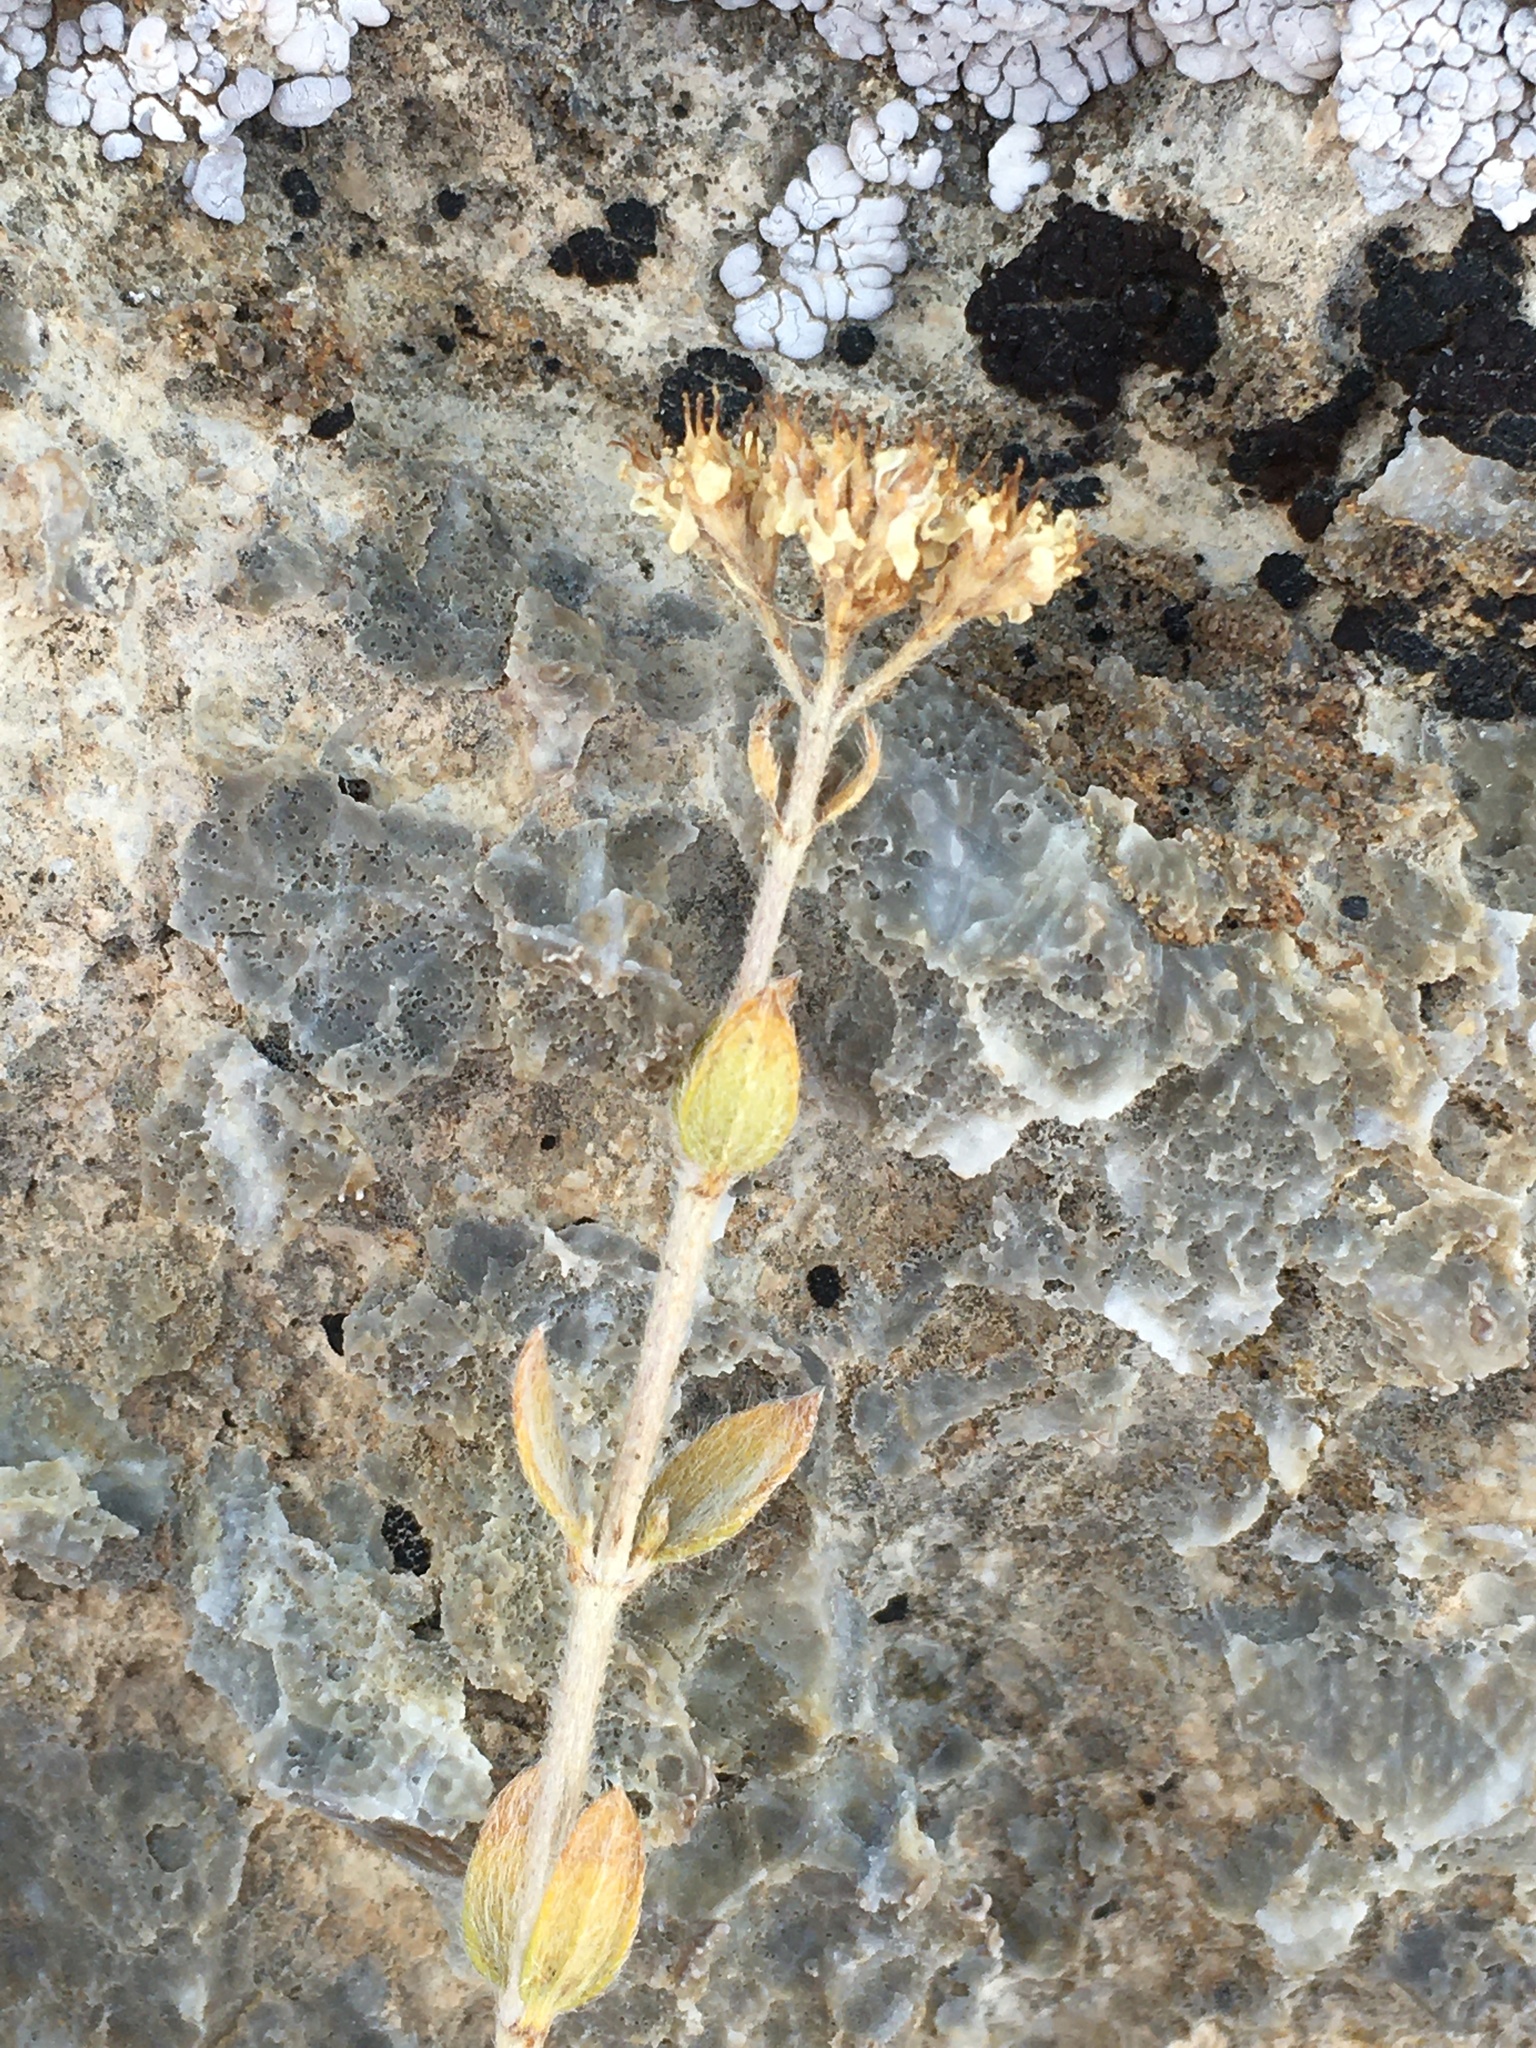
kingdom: Plantae
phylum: Tracheophyta
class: Magnoliopsida
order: Cornales
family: Hydrangeaceae
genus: Fendlerella
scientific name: Fendlerella utahensis
